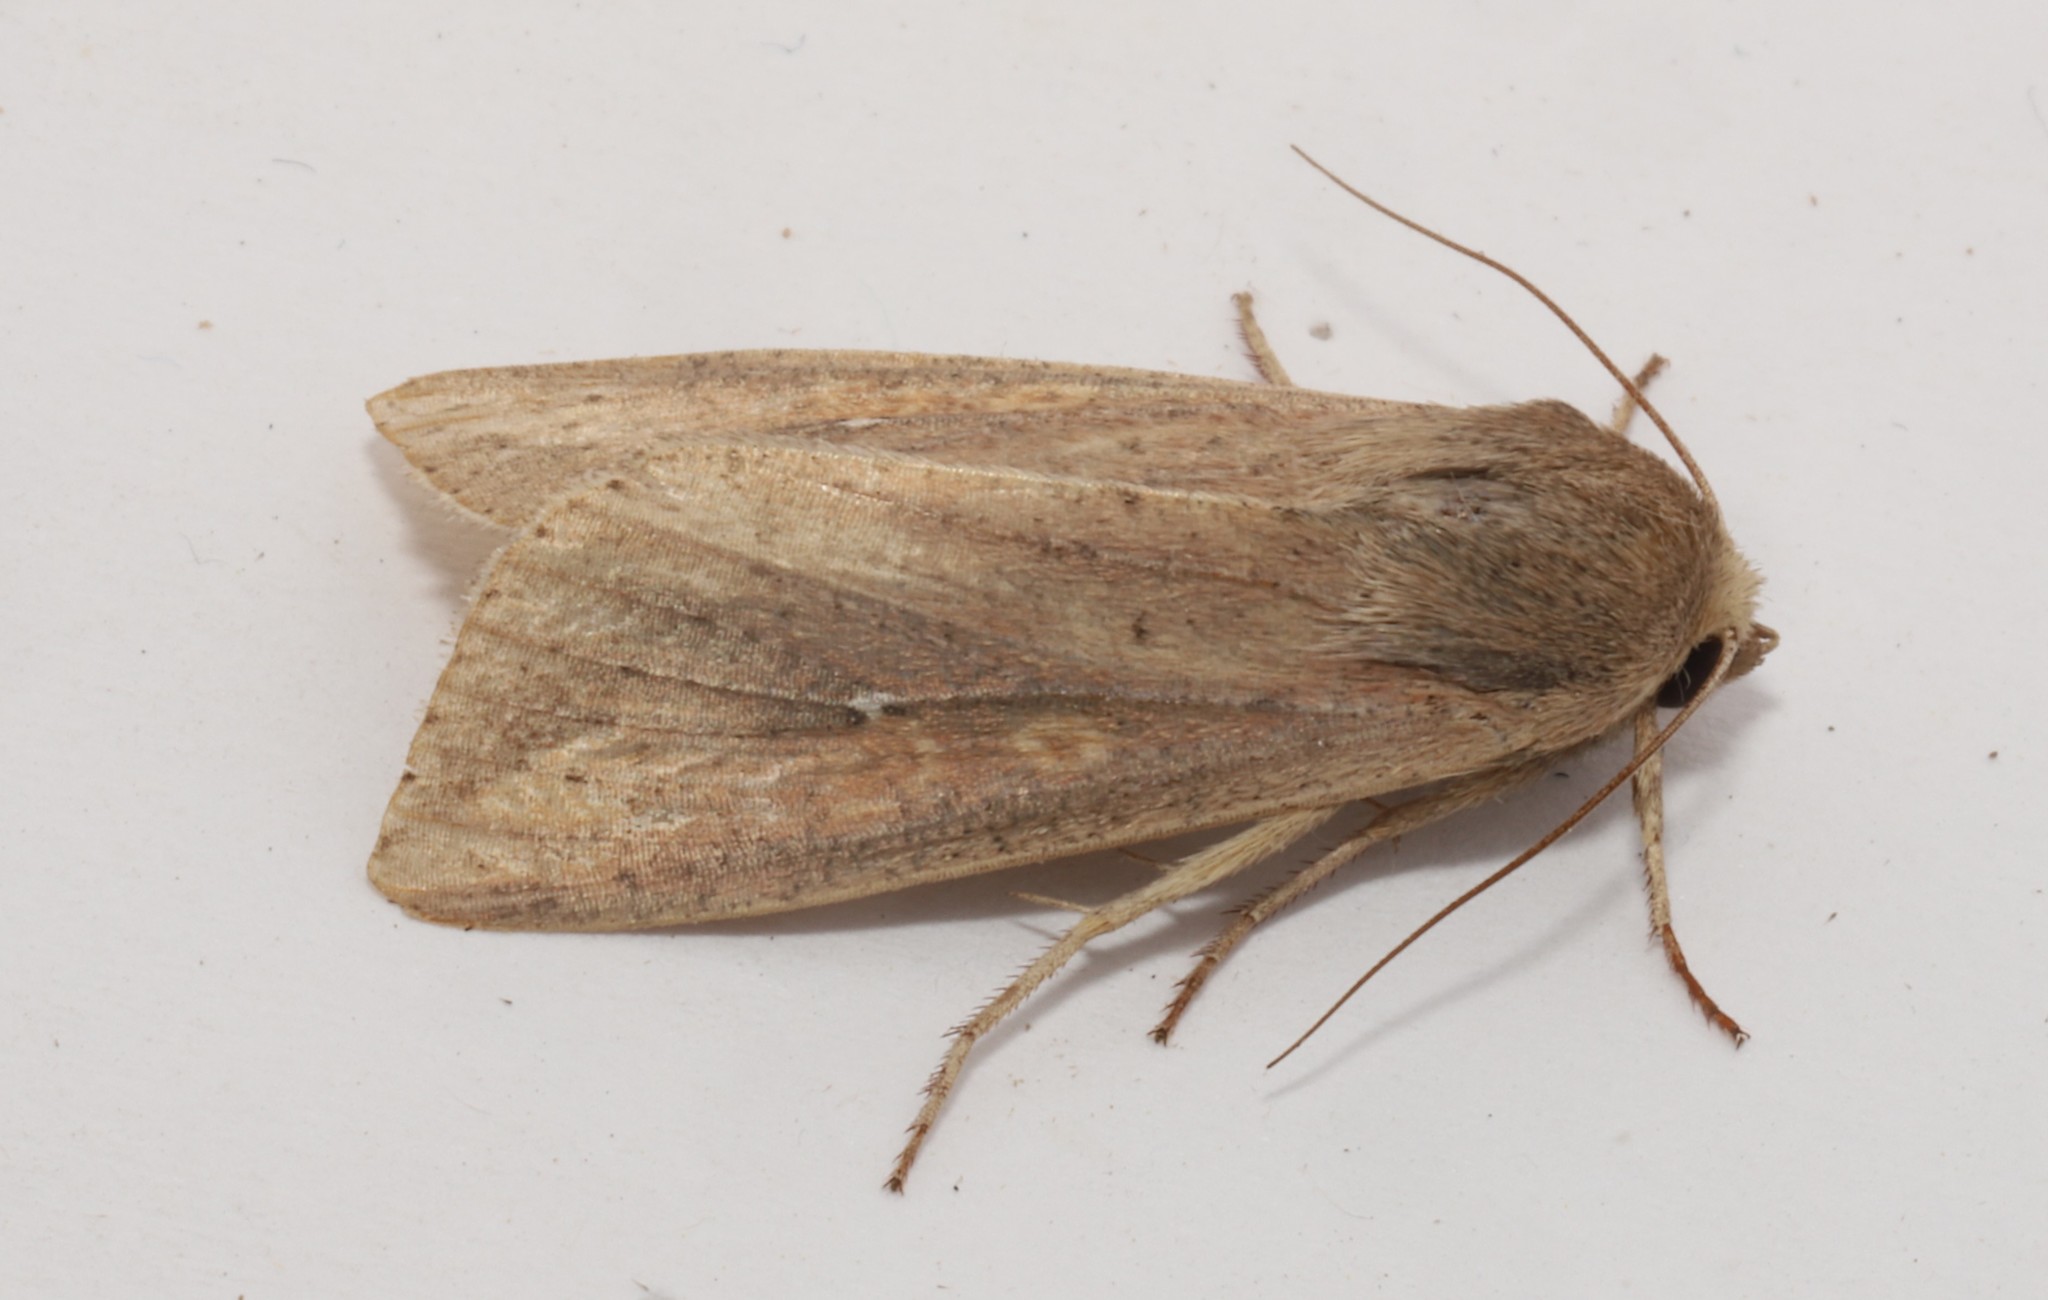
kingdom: Animalia
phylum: Arthropoda
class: Insecta
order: Lepidoptera
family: Noctuidae
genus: Mythimna
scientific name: Mythimna unipuncta
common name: White-speck
